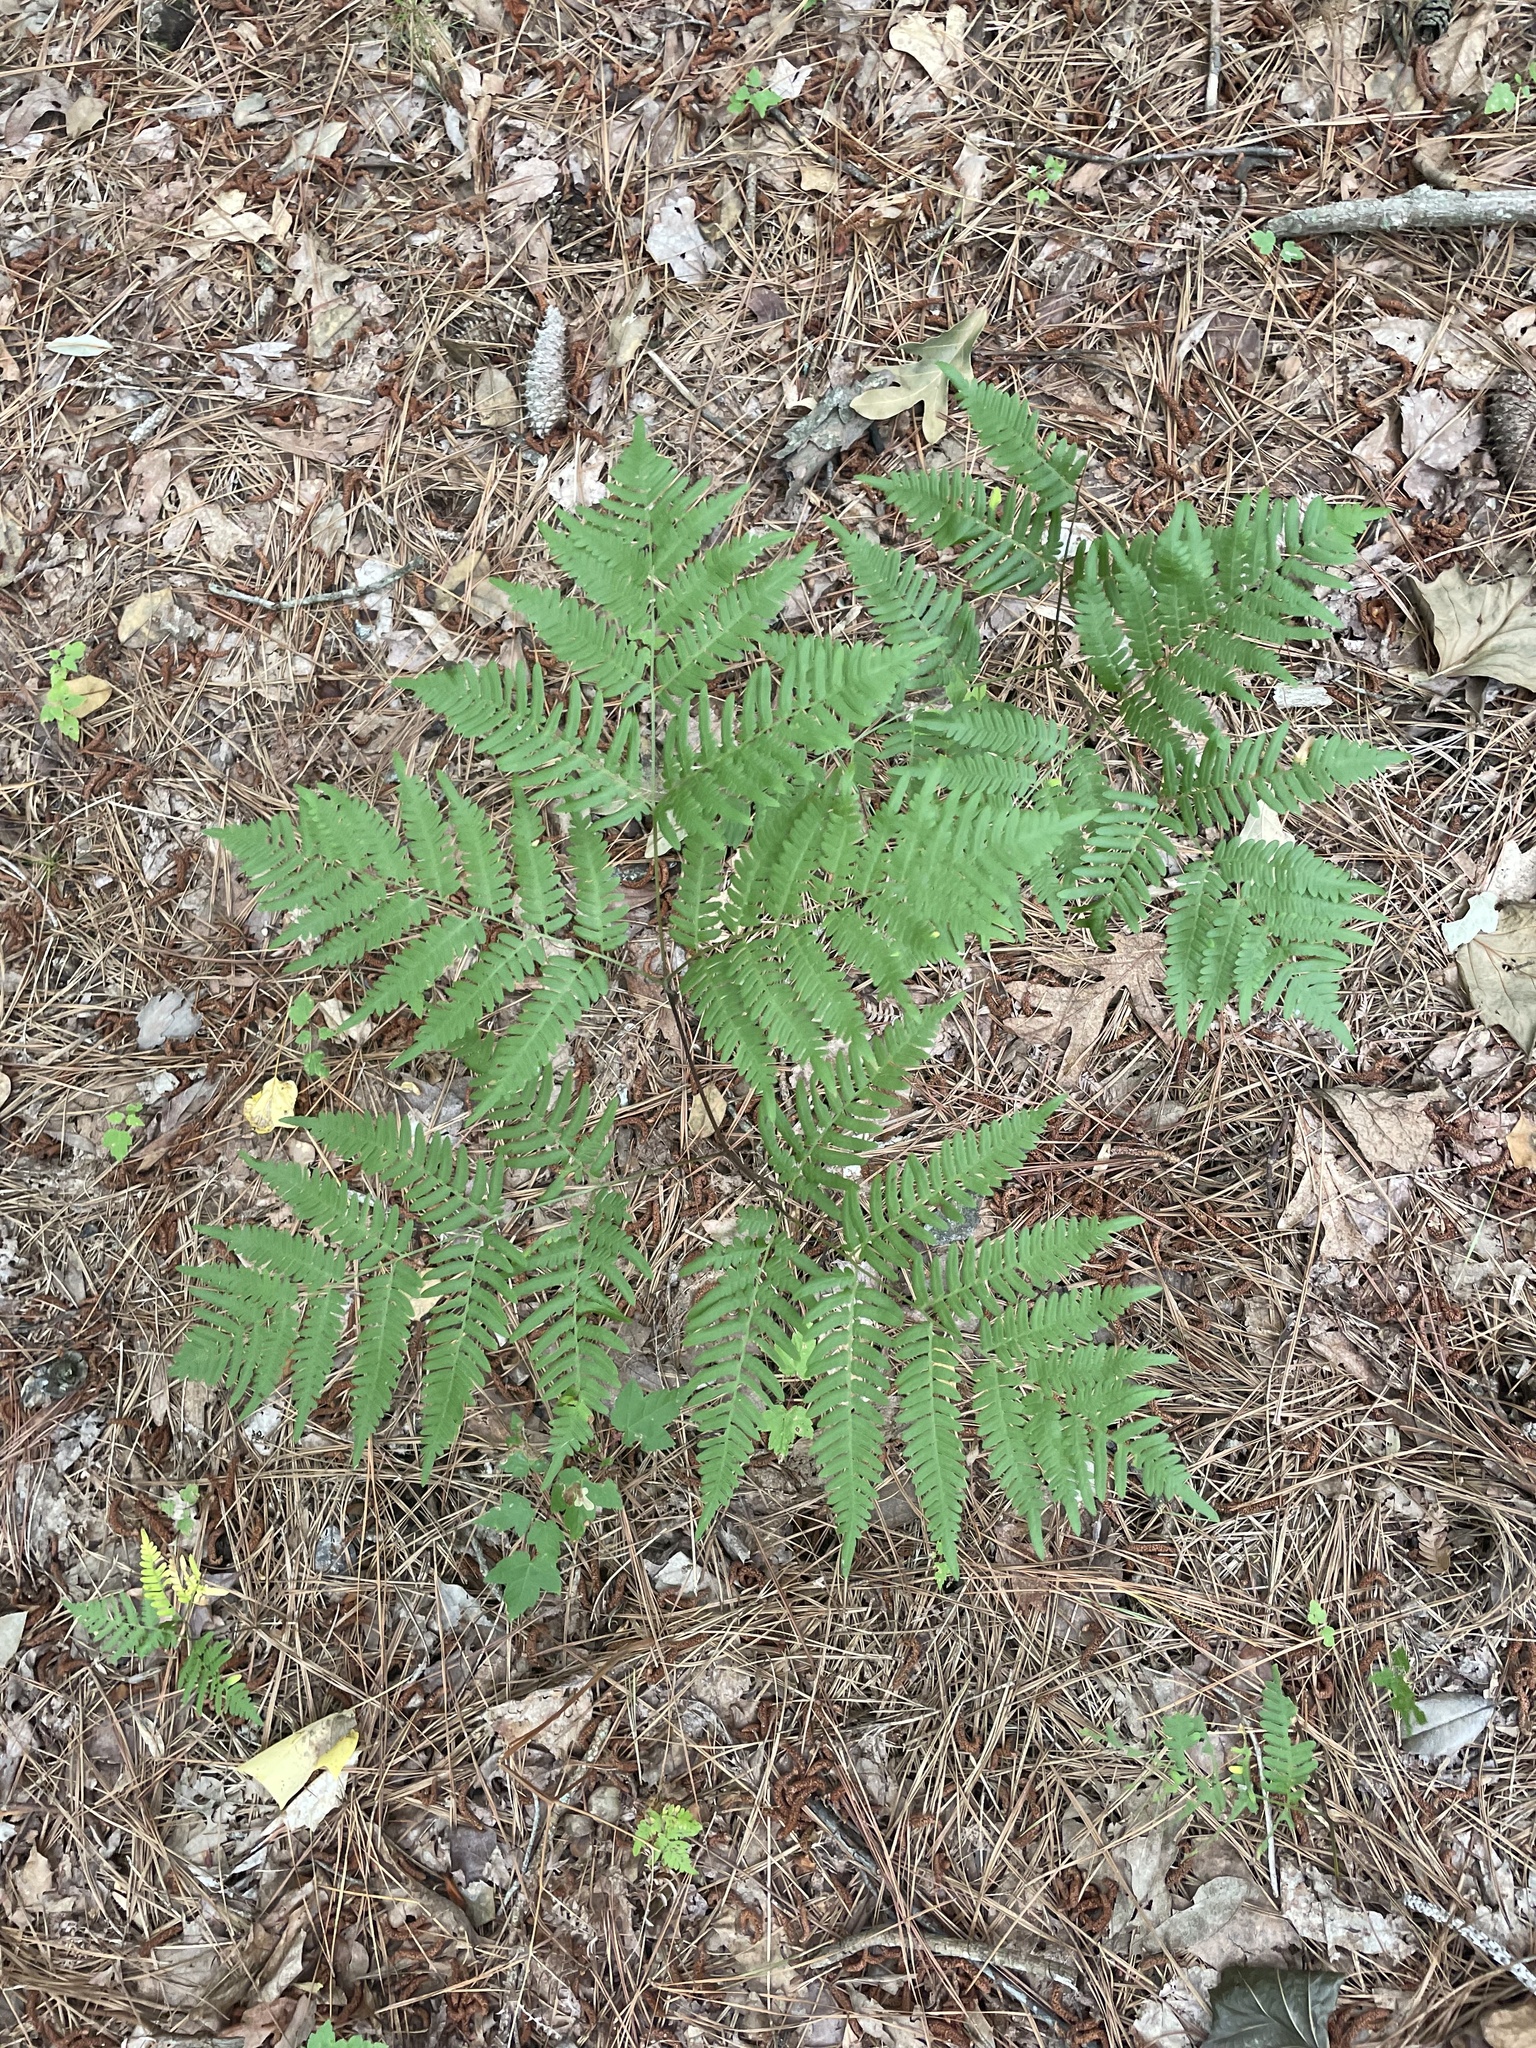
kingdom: Plantae
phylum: Tracheophyta
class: Polypodiopsida
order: Polypodiales
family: Dennstaedtiaceae
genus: Pteridium
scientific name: Pteridium aquilinum
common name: Bracken
